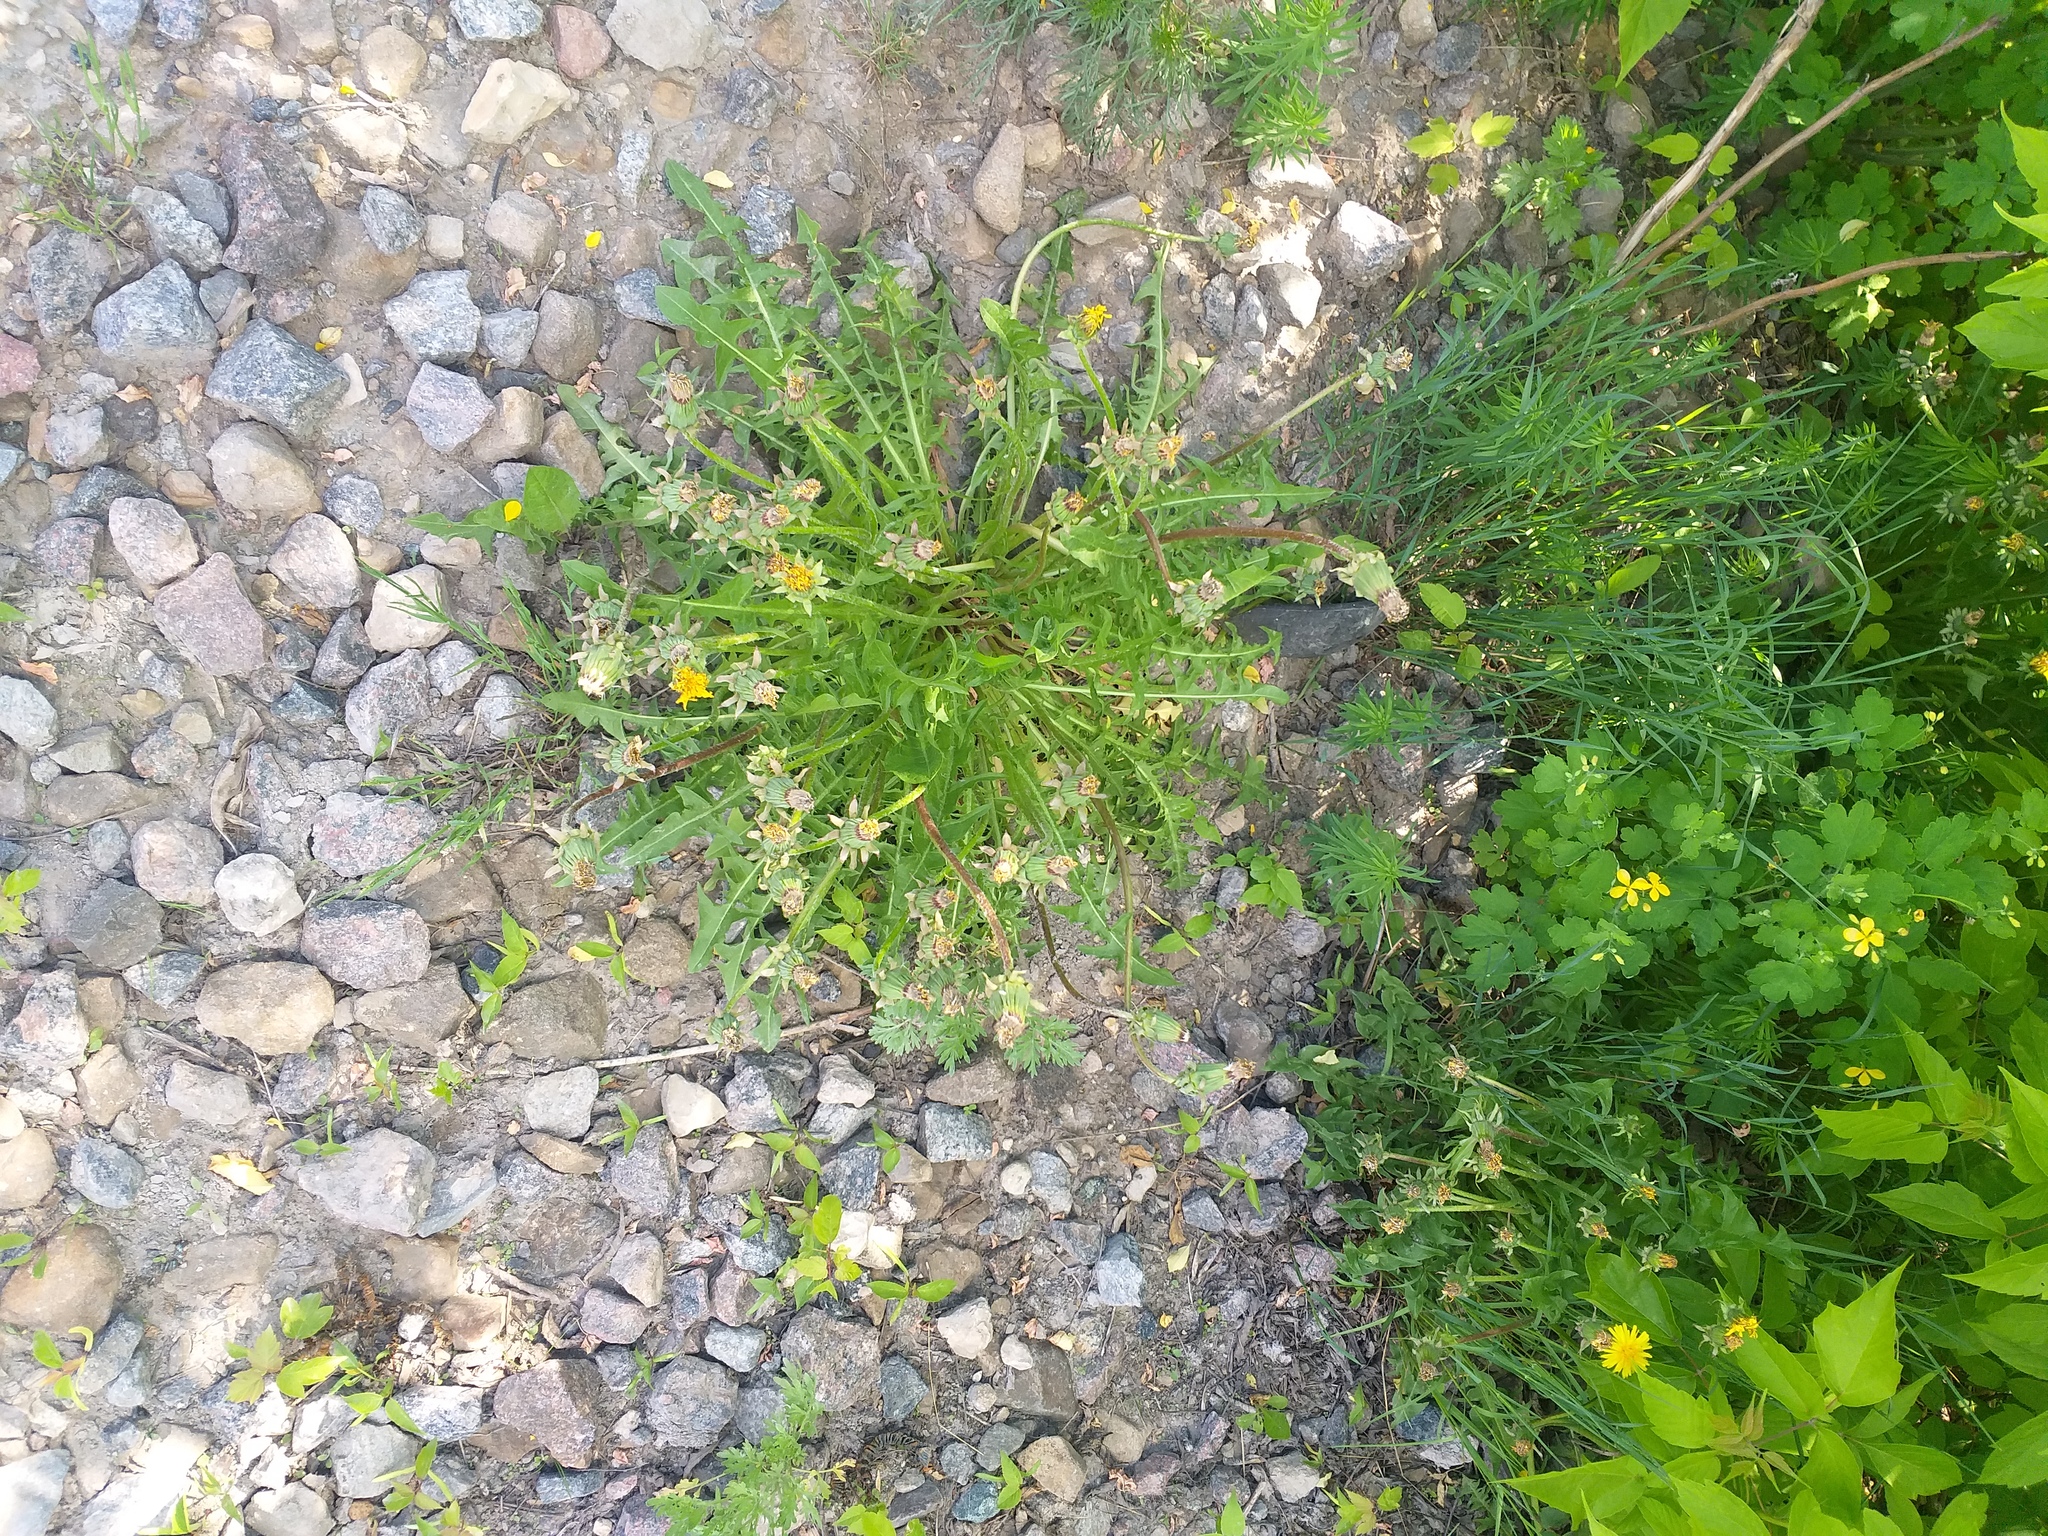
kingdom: Plantae
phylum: Tracheophyta
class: Magnoliopsida
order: Asterales
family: Asteraceae
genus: Taraxacum
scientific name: Taraxacum officinale
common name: Common dandelion
